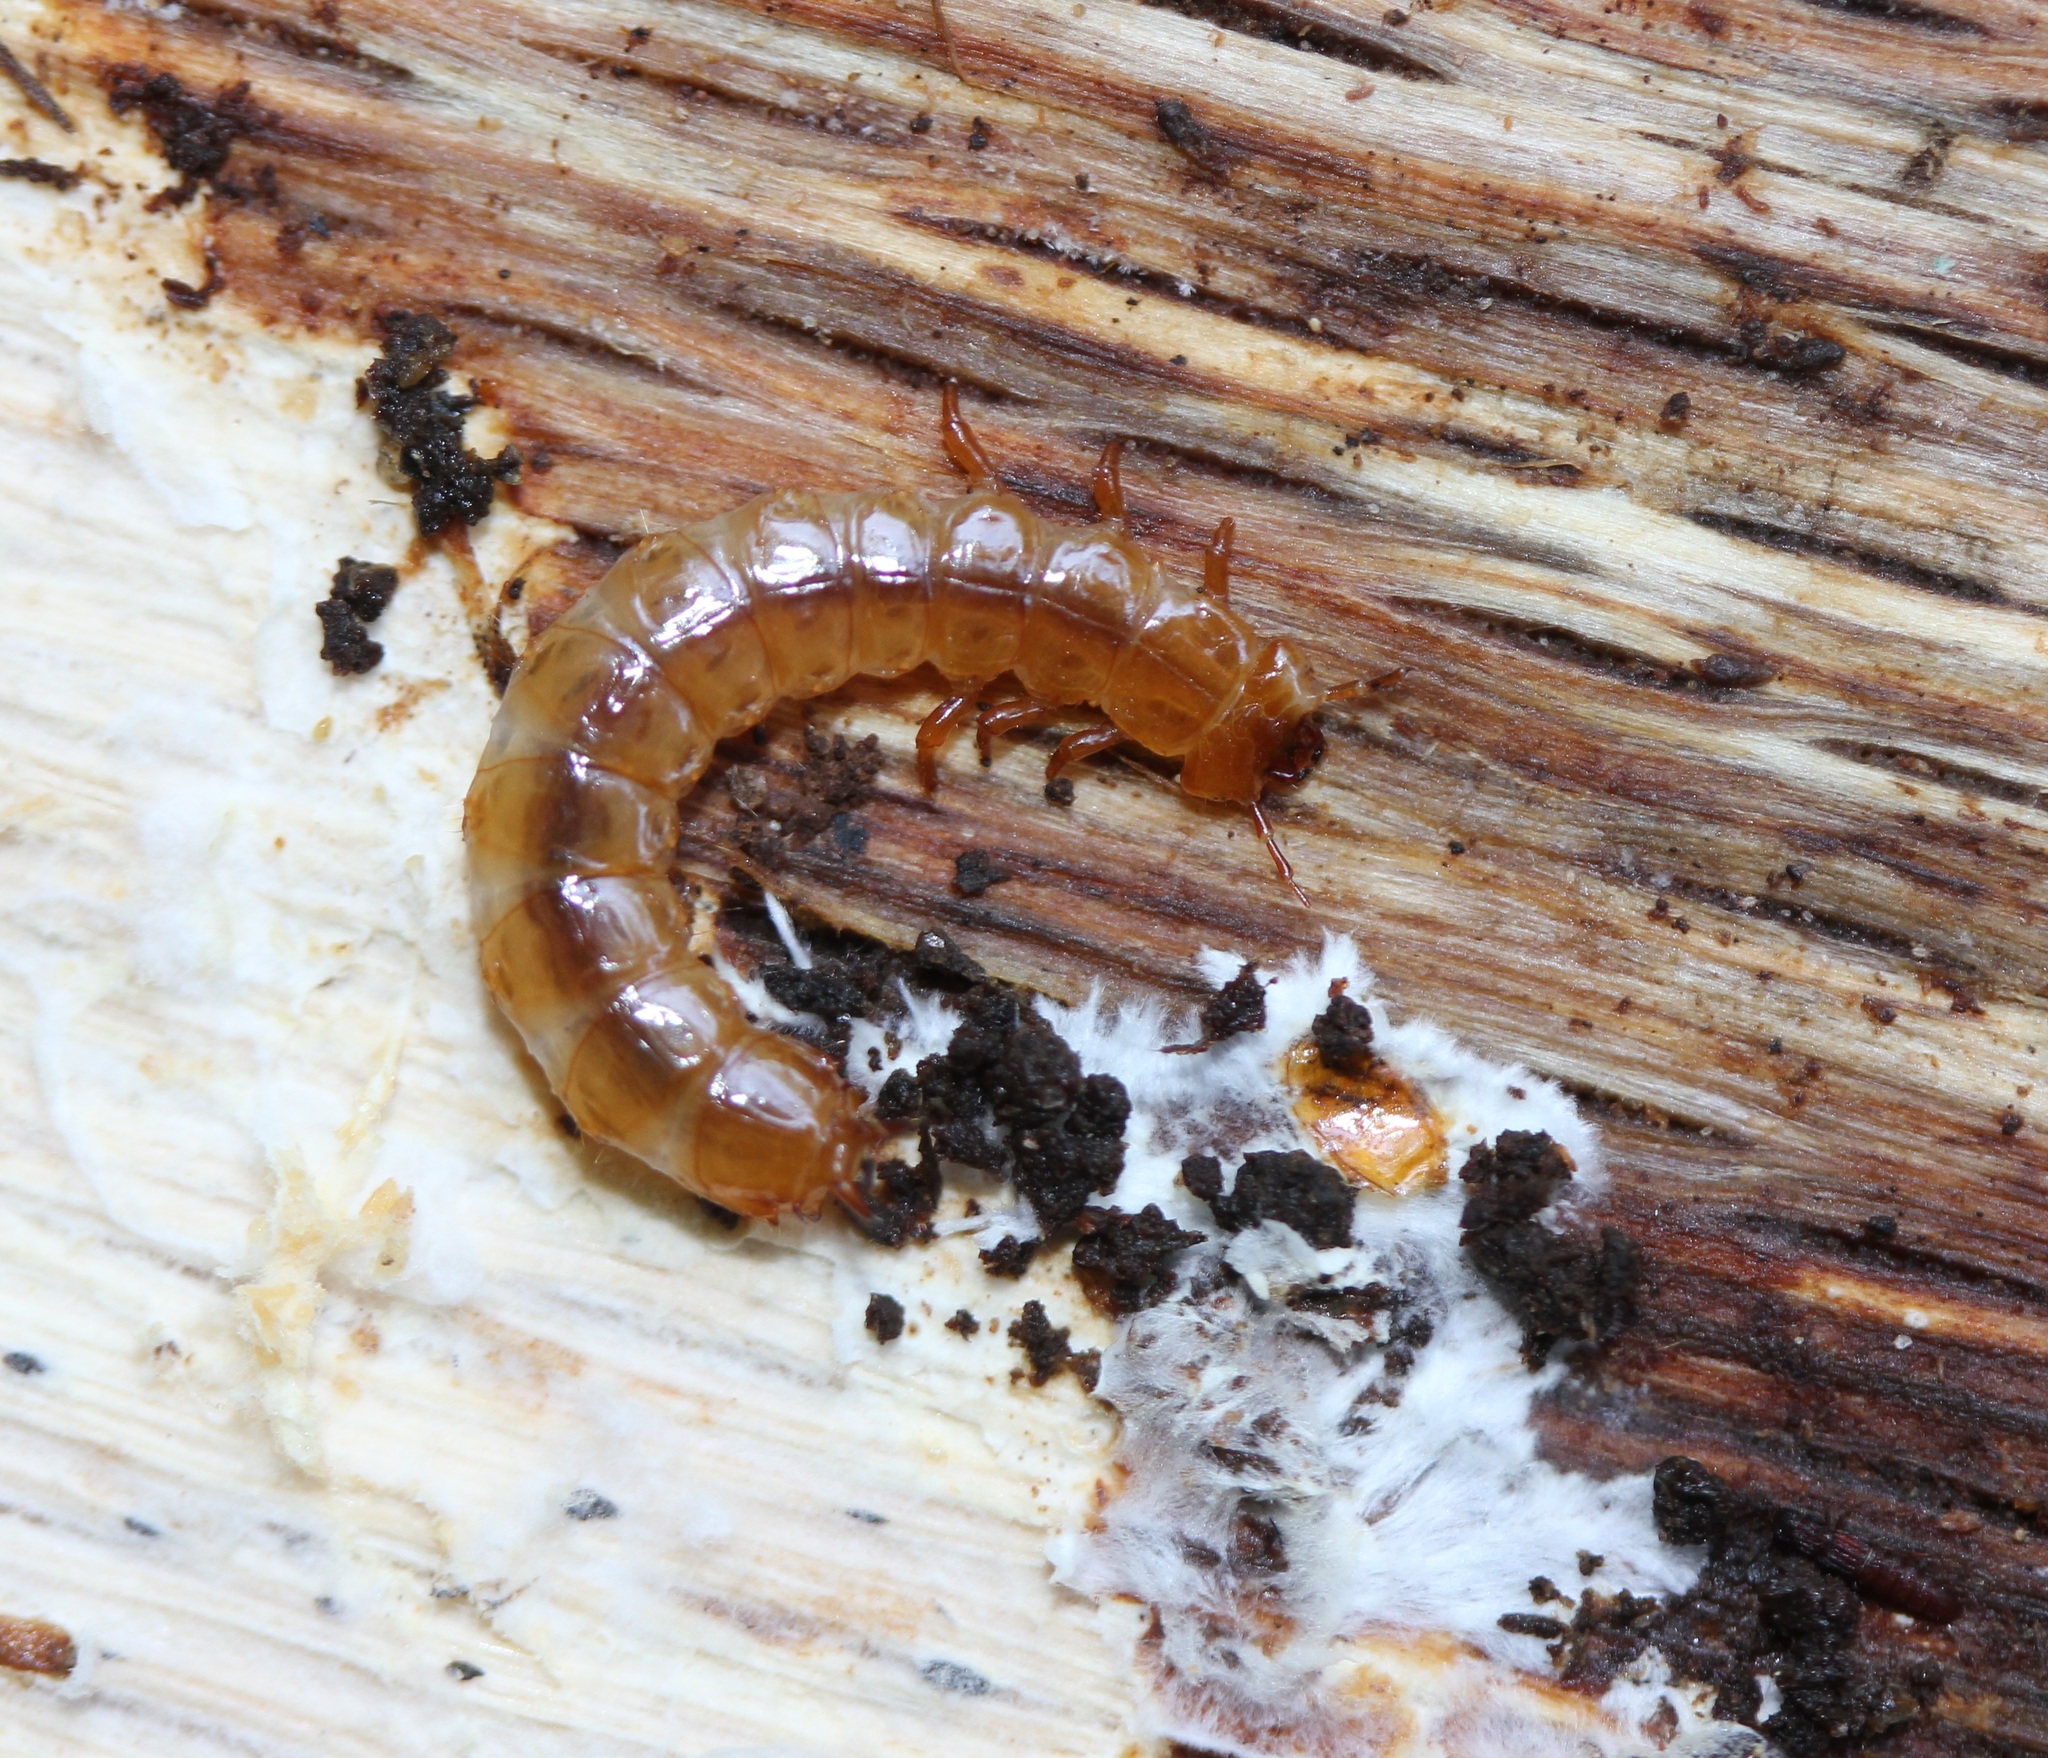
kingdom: Animalia
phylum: Arthropoda
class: Insecta
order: Coleoptera
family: Cucujidae
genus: Cucujus
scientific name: Cucujus clavipes
